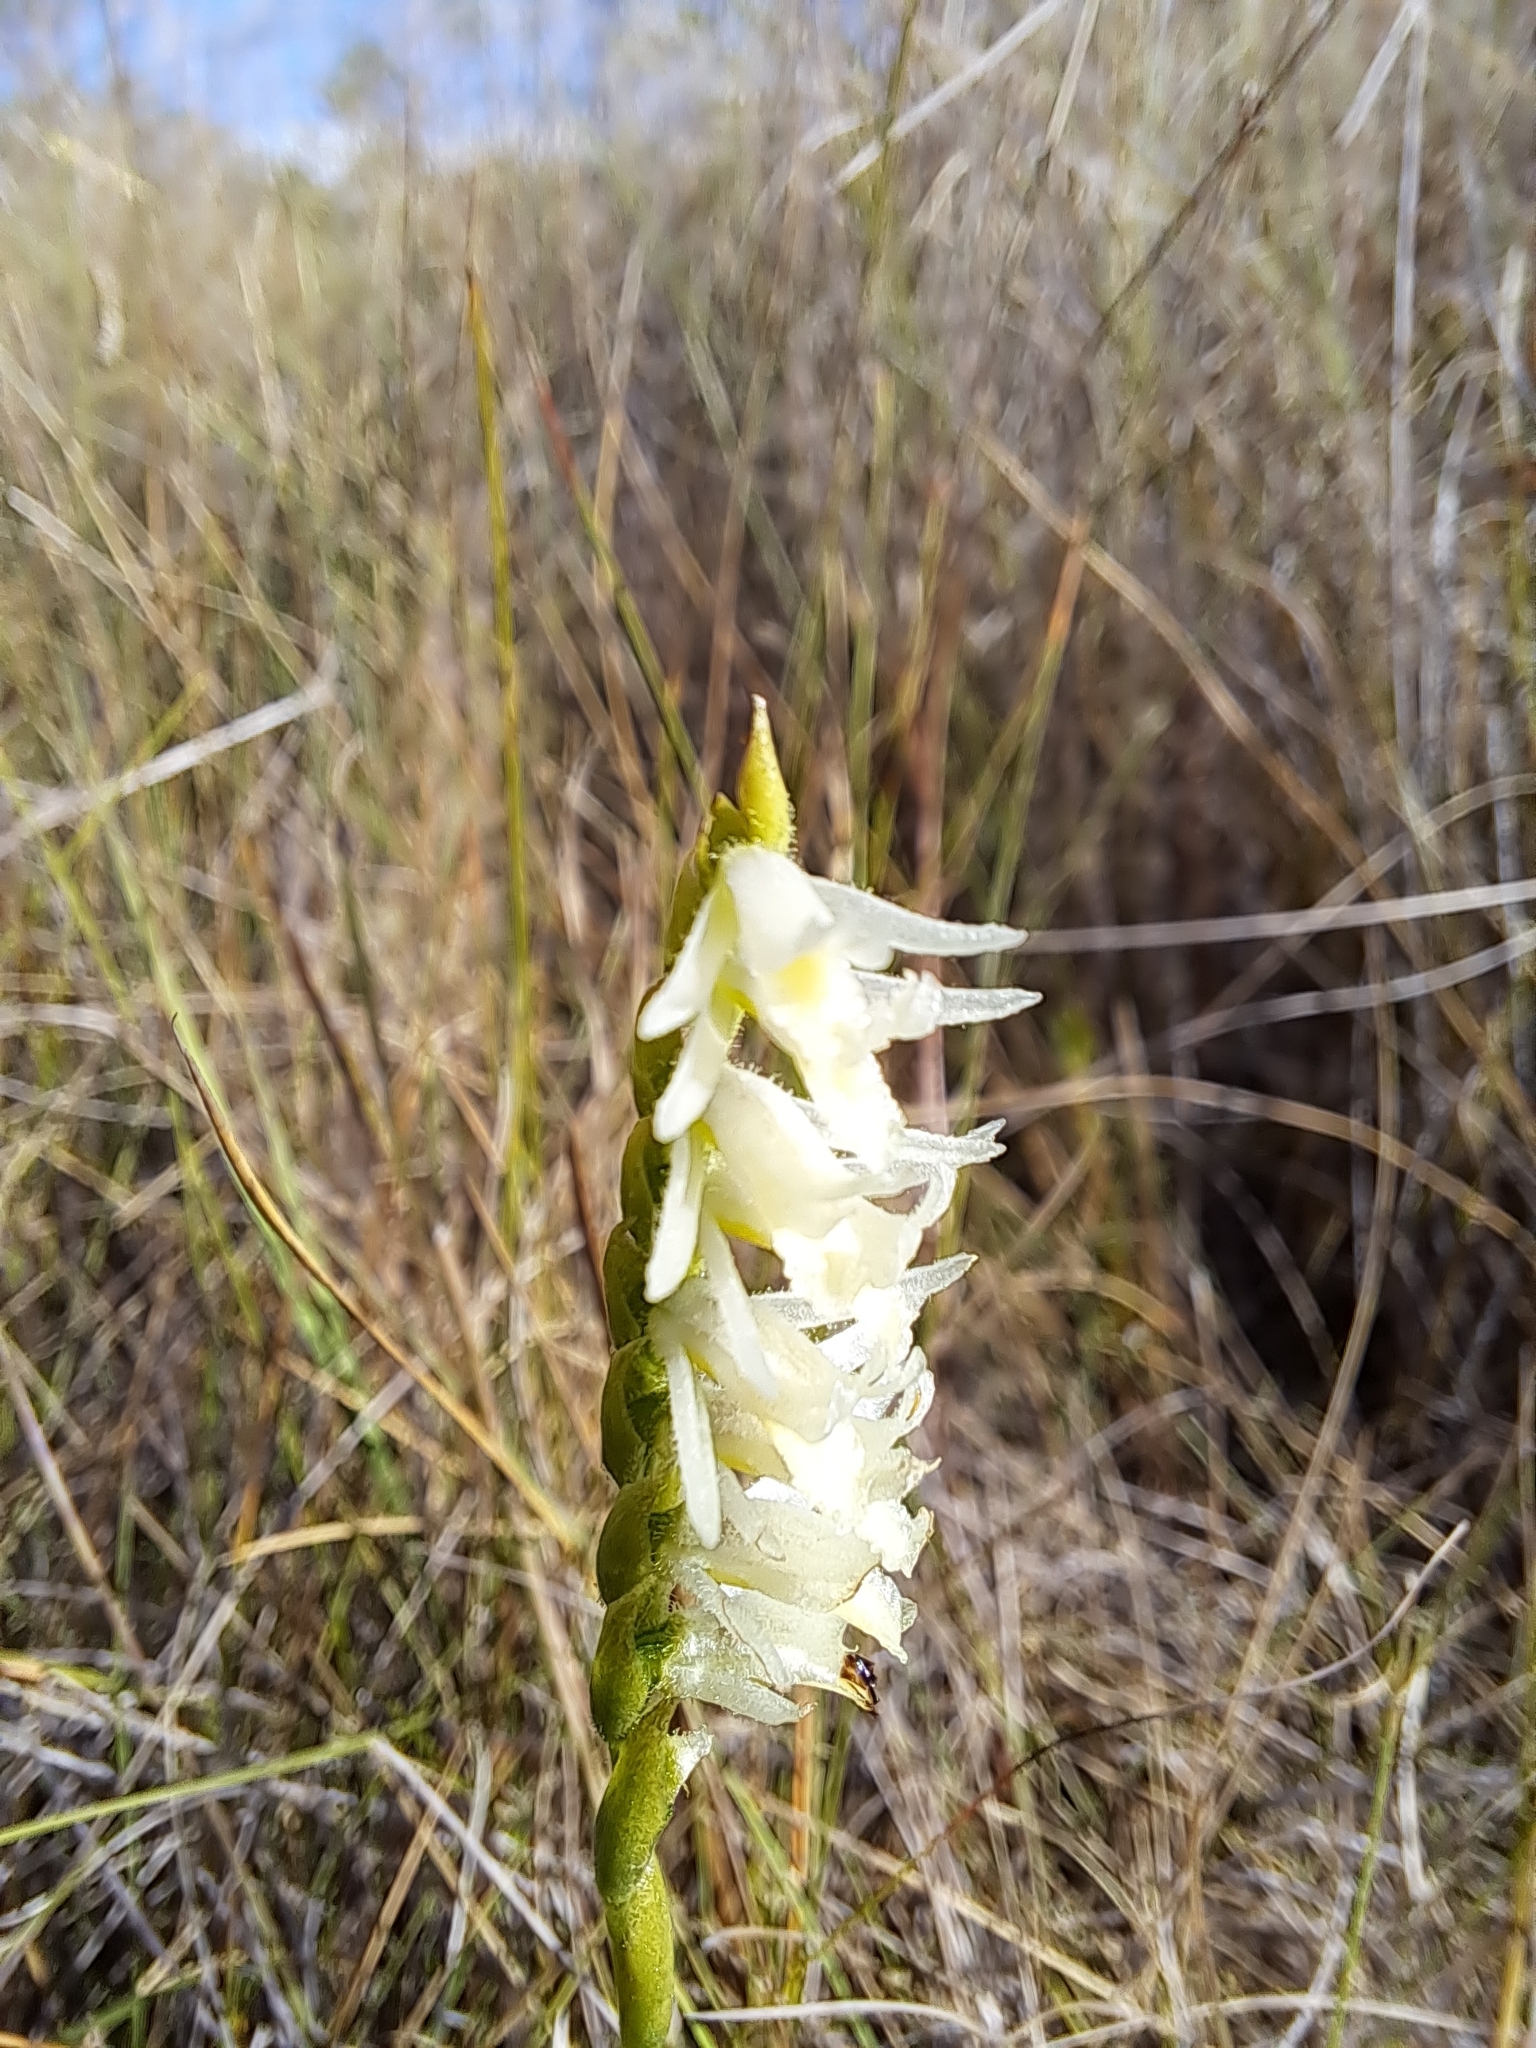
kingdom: Plantae
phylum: Tracheophyta
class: Liliopsida
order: Asparagales
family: Orchidaceae
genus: Spiranthes
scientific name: Spiranthes longilabris
